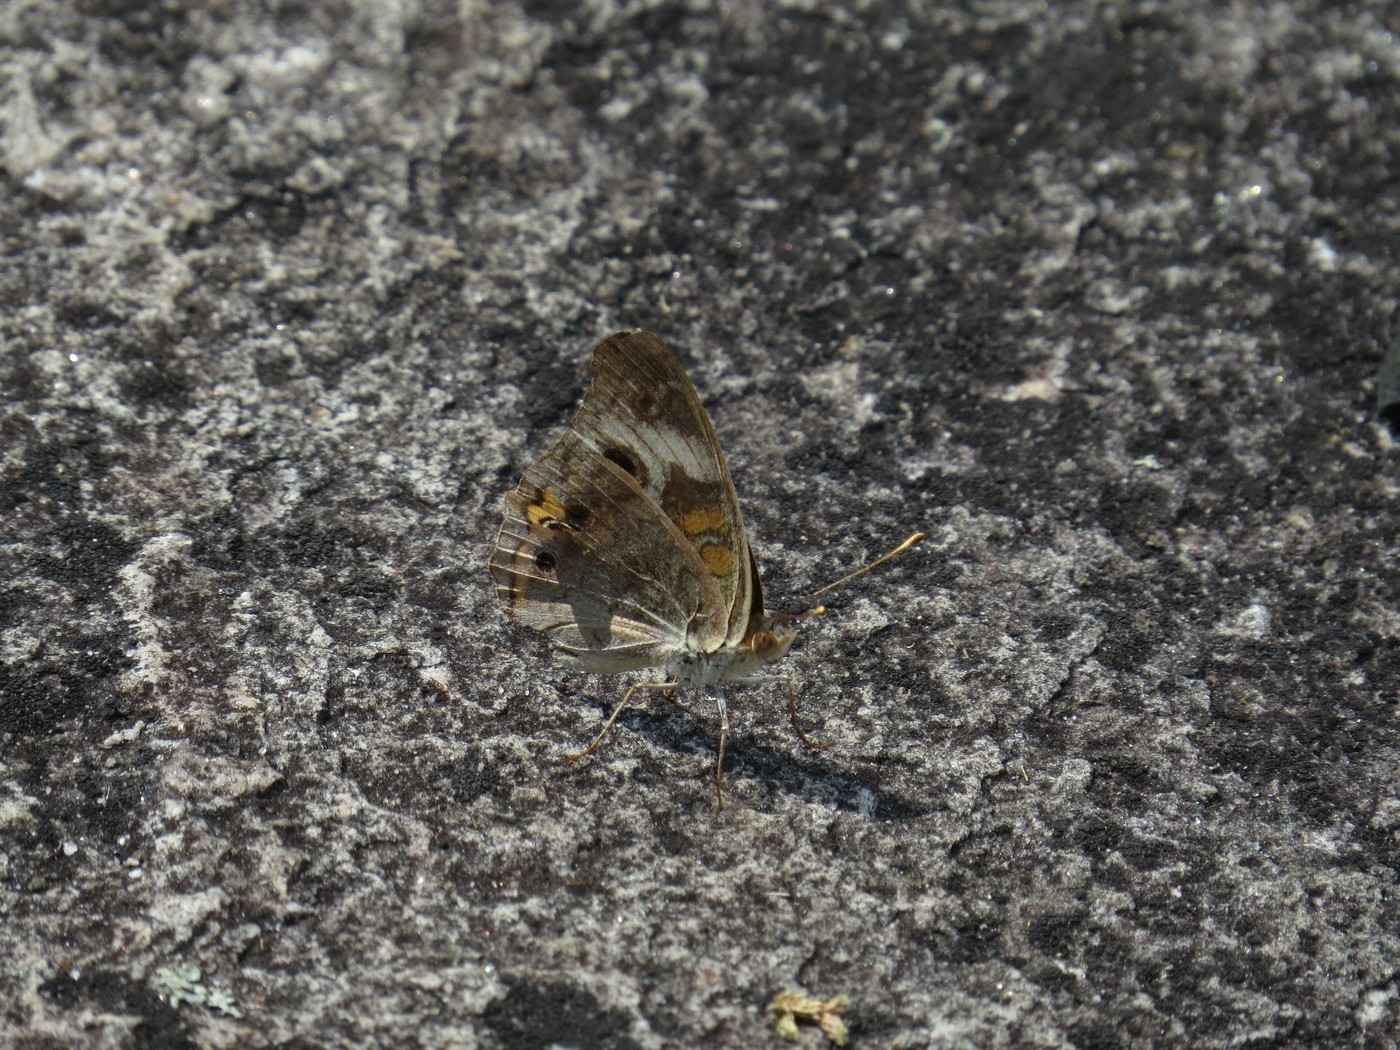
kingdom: Animalia
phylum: Arthropoda
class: Insecta
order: Lepidoptera
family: Nymphalidae
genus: Junonia
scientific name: Junonia coenia
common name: Common buckeye
